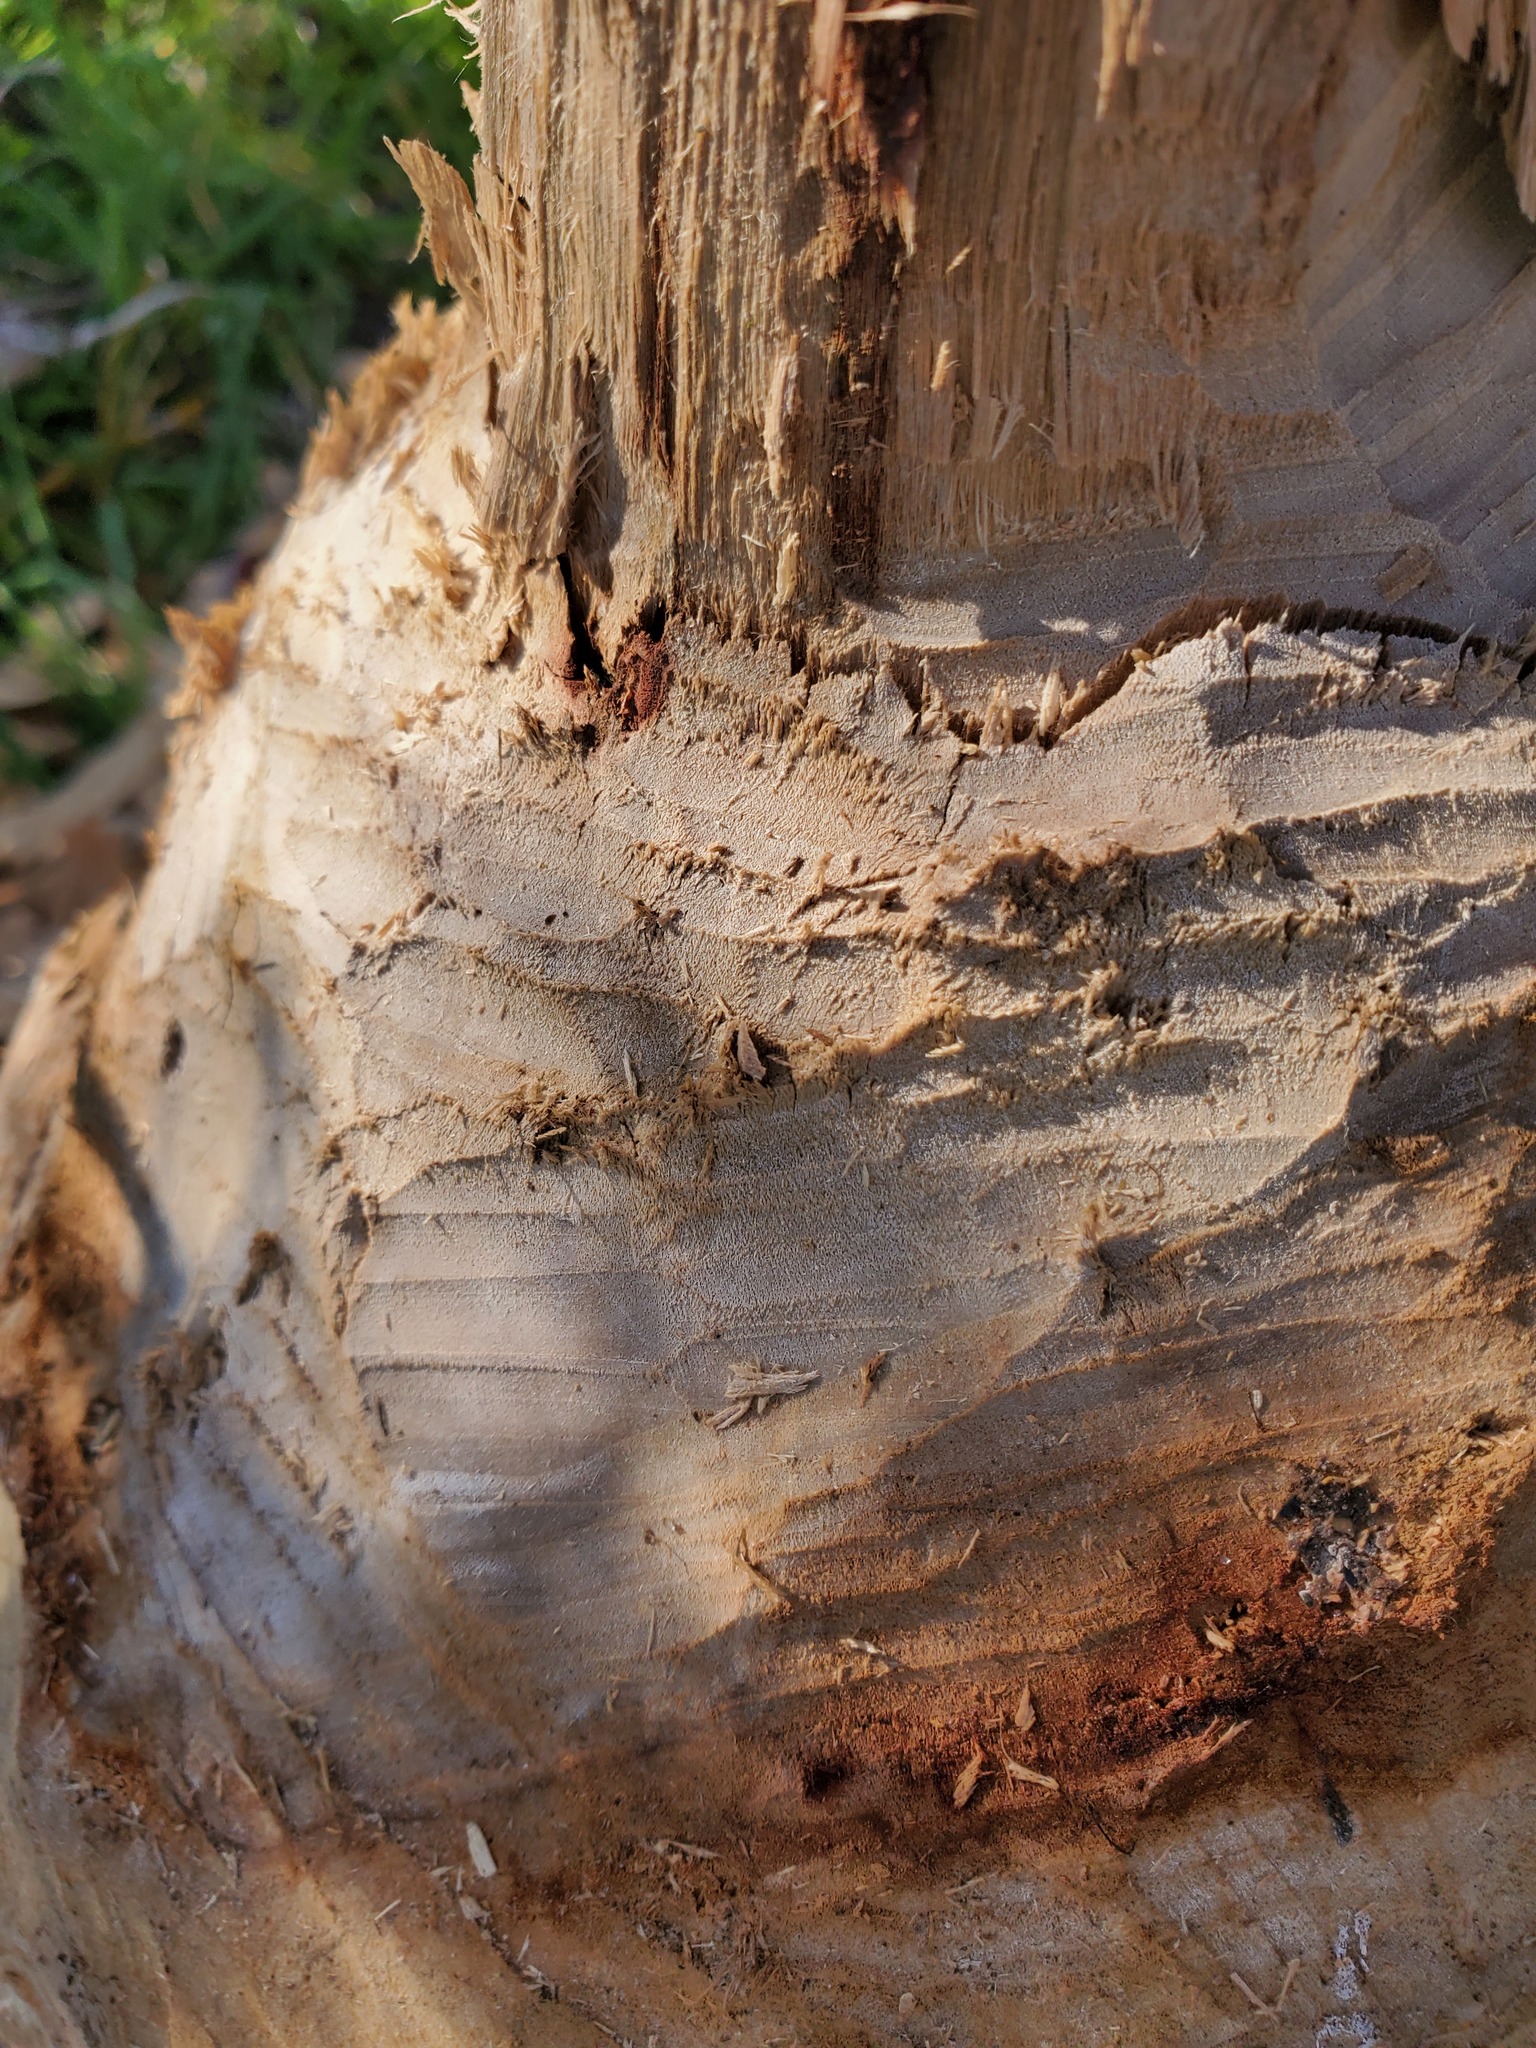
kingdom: Animalia
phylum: Chordata
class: Mammalia
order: Rodentia
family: Castoridae
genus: Castor
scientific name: Castor canadensis
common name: American beaver
